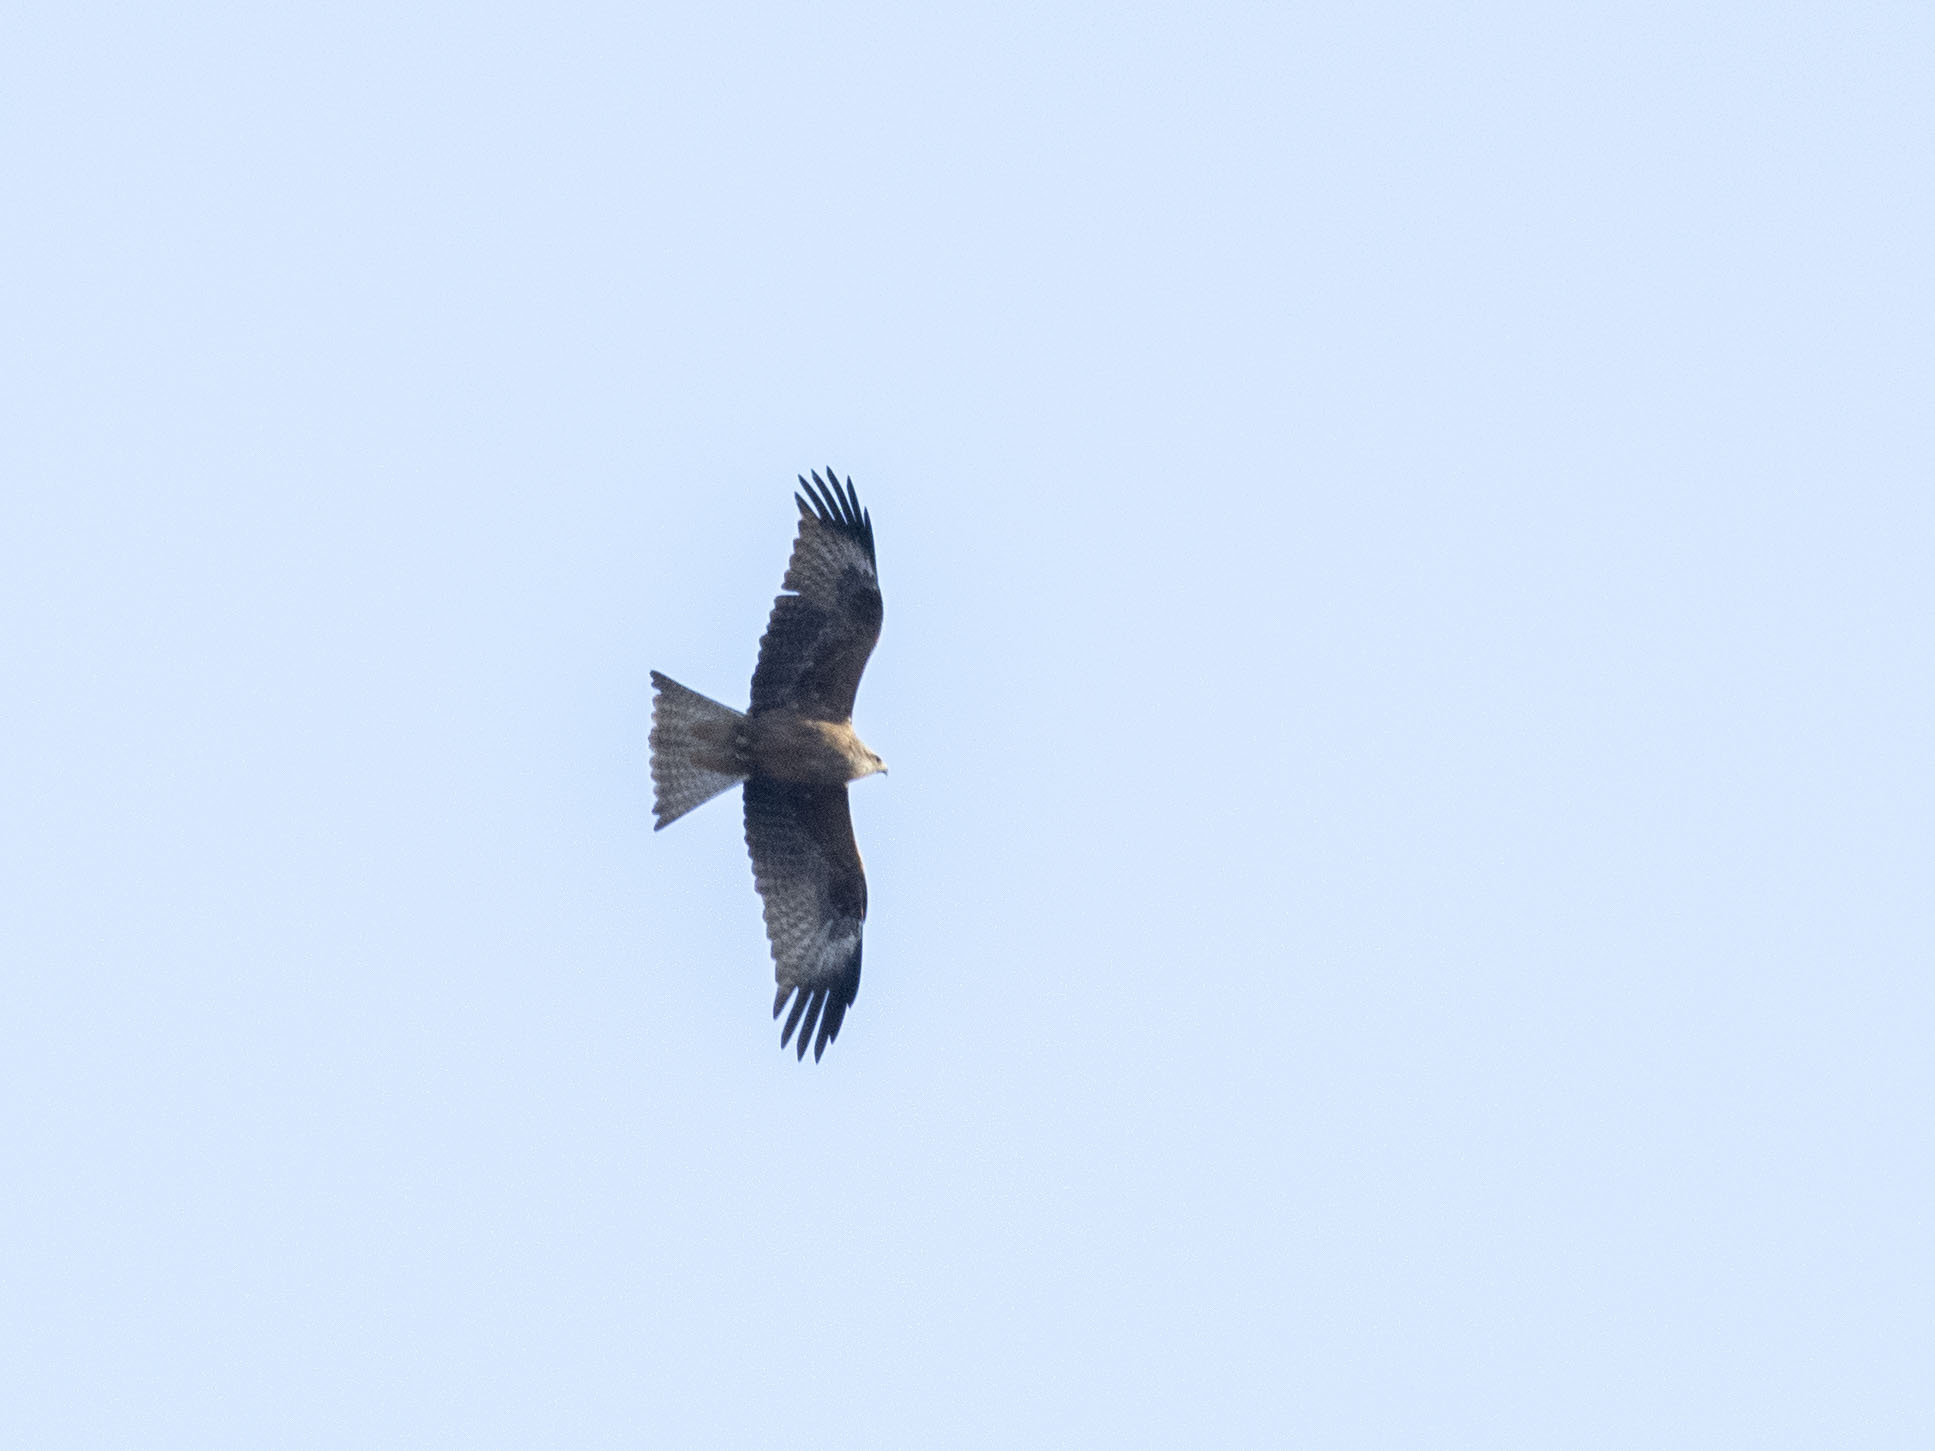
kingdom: Animalia
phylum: Chordata
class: Aves
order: Accipitriformes
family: Accipitridae
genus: Milvus
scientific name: Milvus migrans
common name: Black kite
